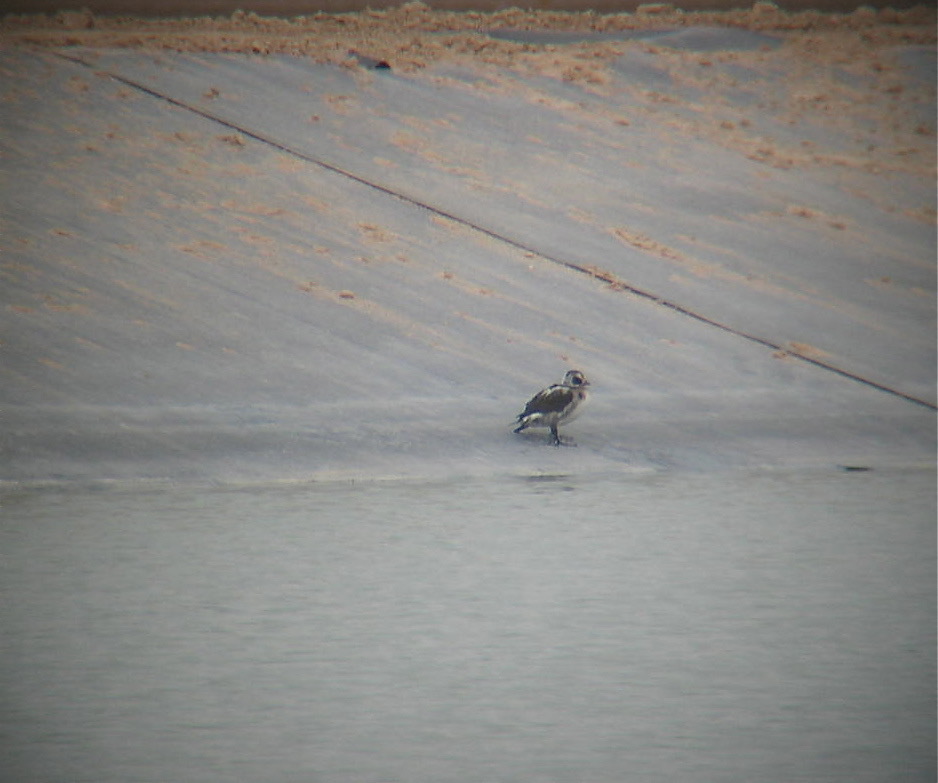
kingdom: Animalia
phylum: Chordata
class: Aves
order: Anseriformes
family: Anatidae
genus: Clangula
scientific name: Clangula hyemalis
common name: Long-tailed duck
